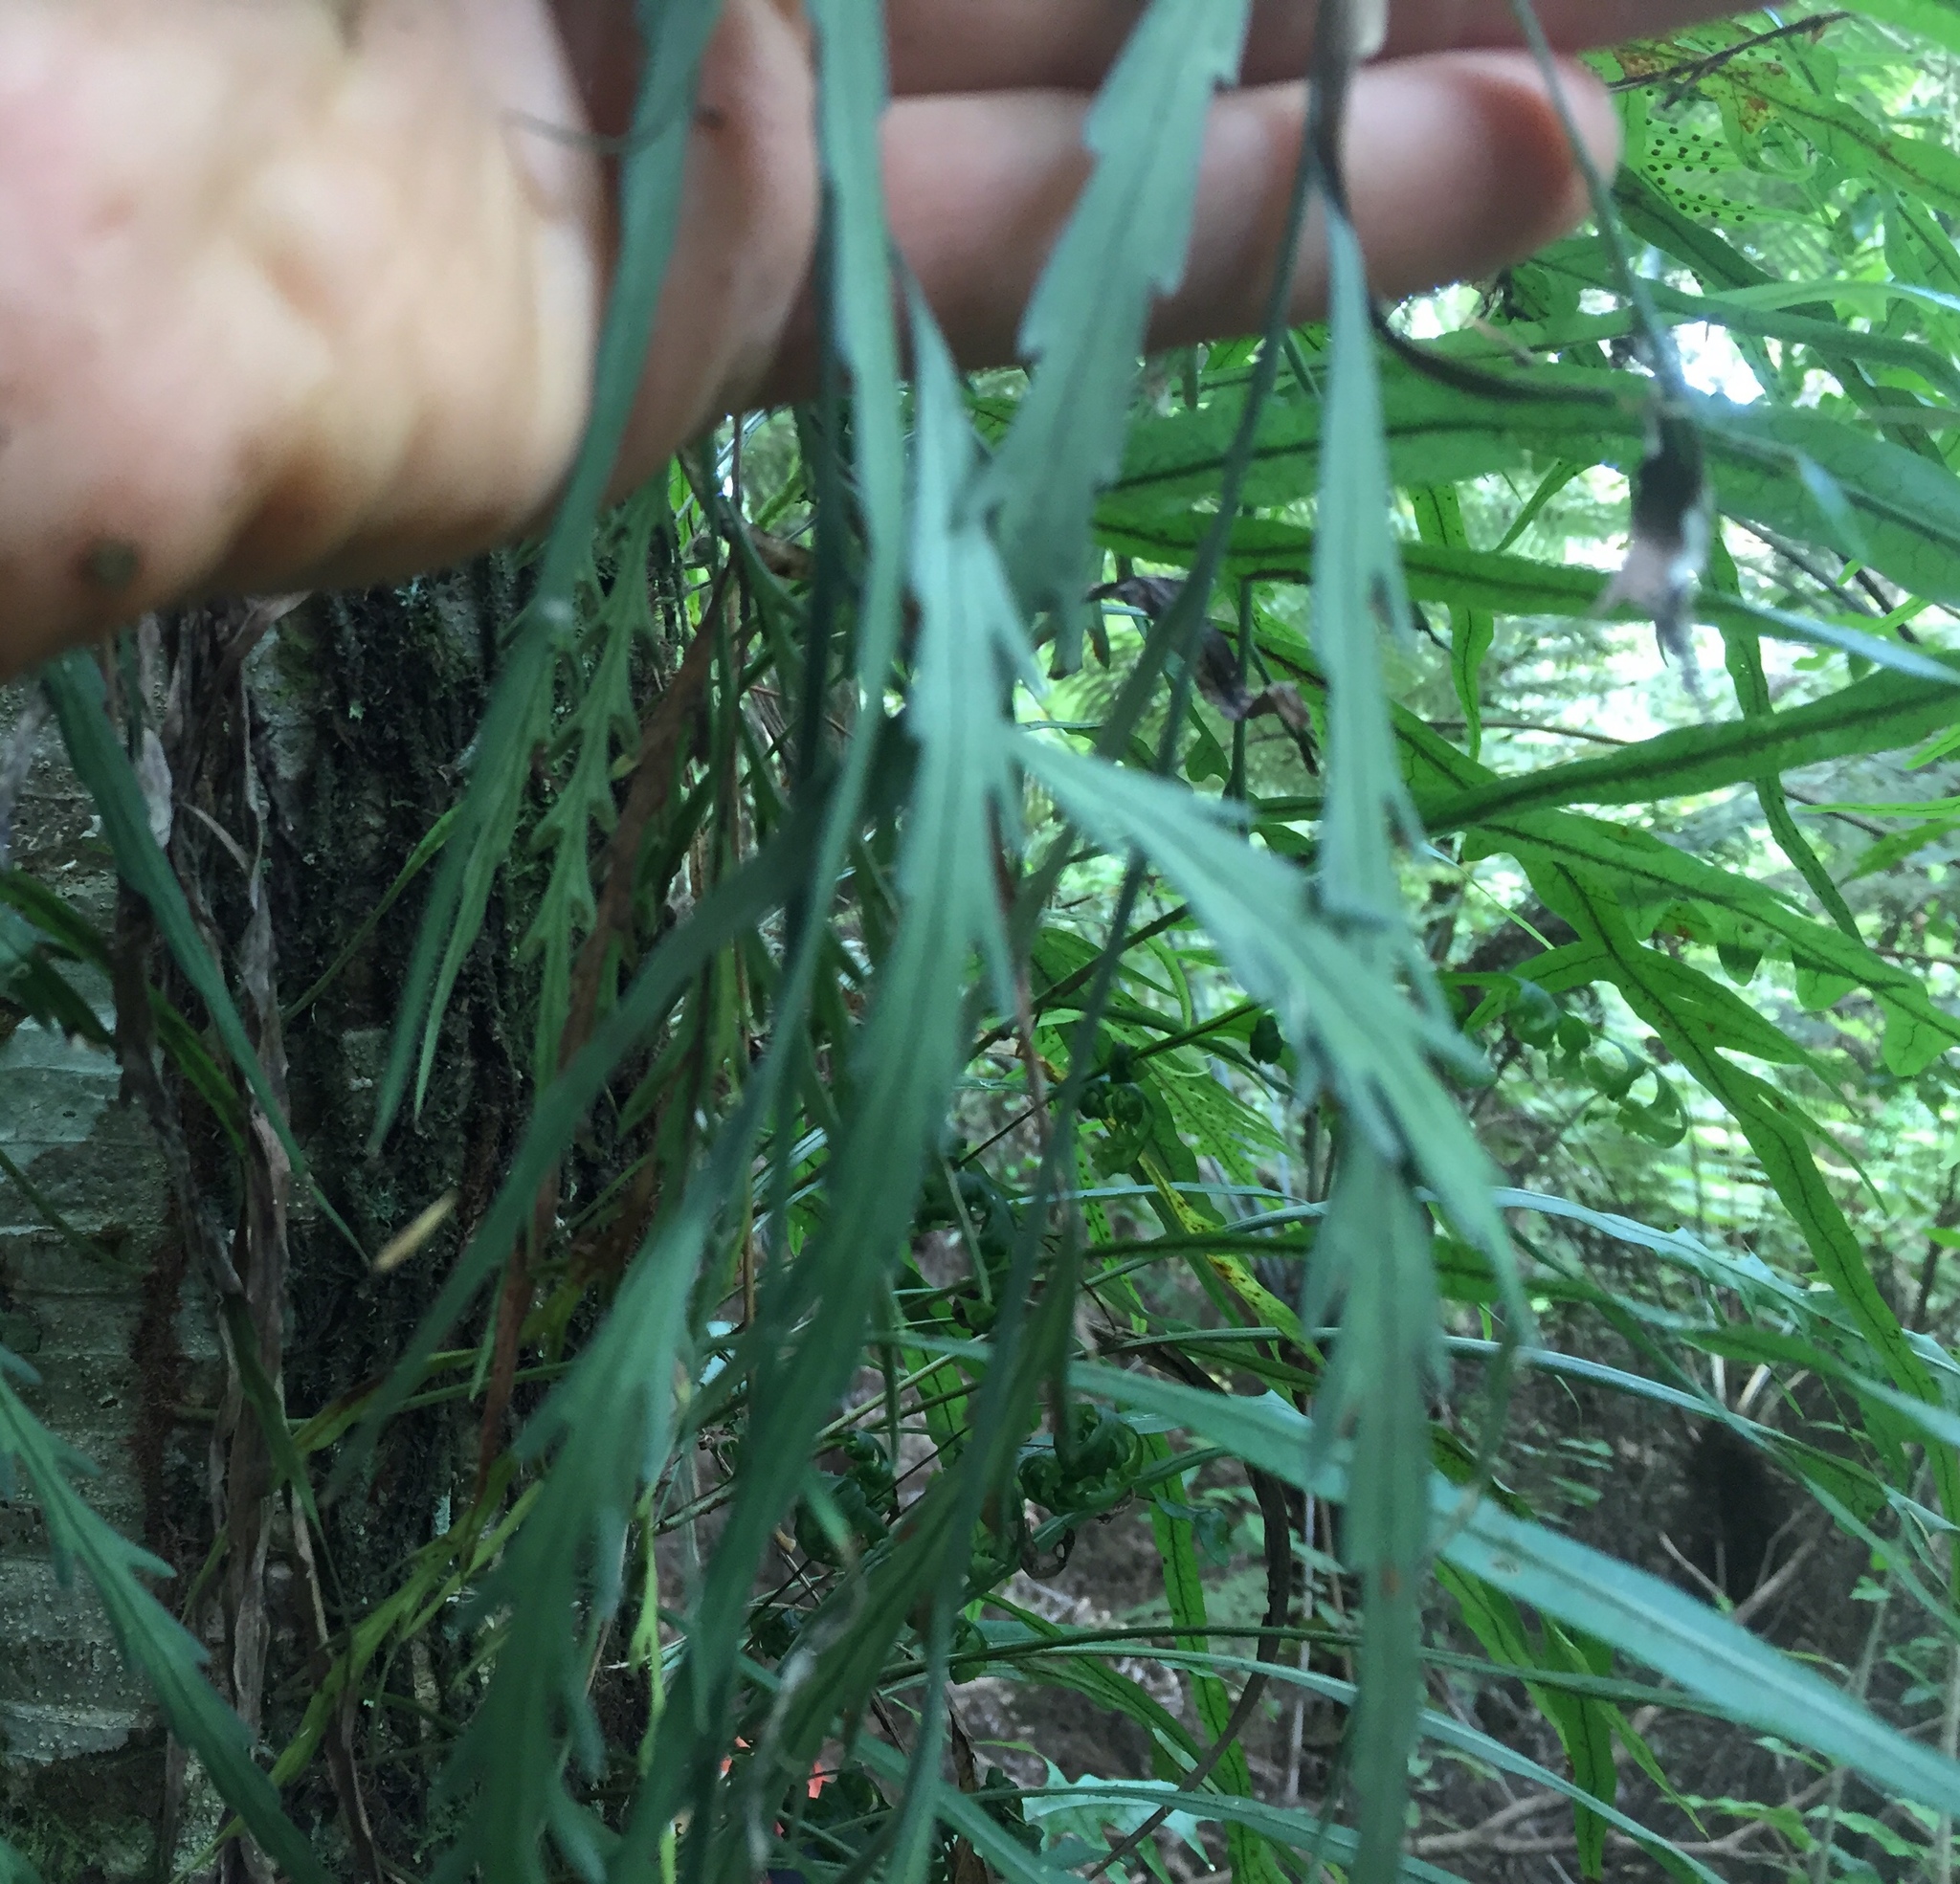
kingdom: Plantae
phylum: Tracheophyta
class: Polypodiopsida
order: Polypodiales
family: Aspleniaceae
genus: Asplenium
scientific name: Asplenium flaccidum
